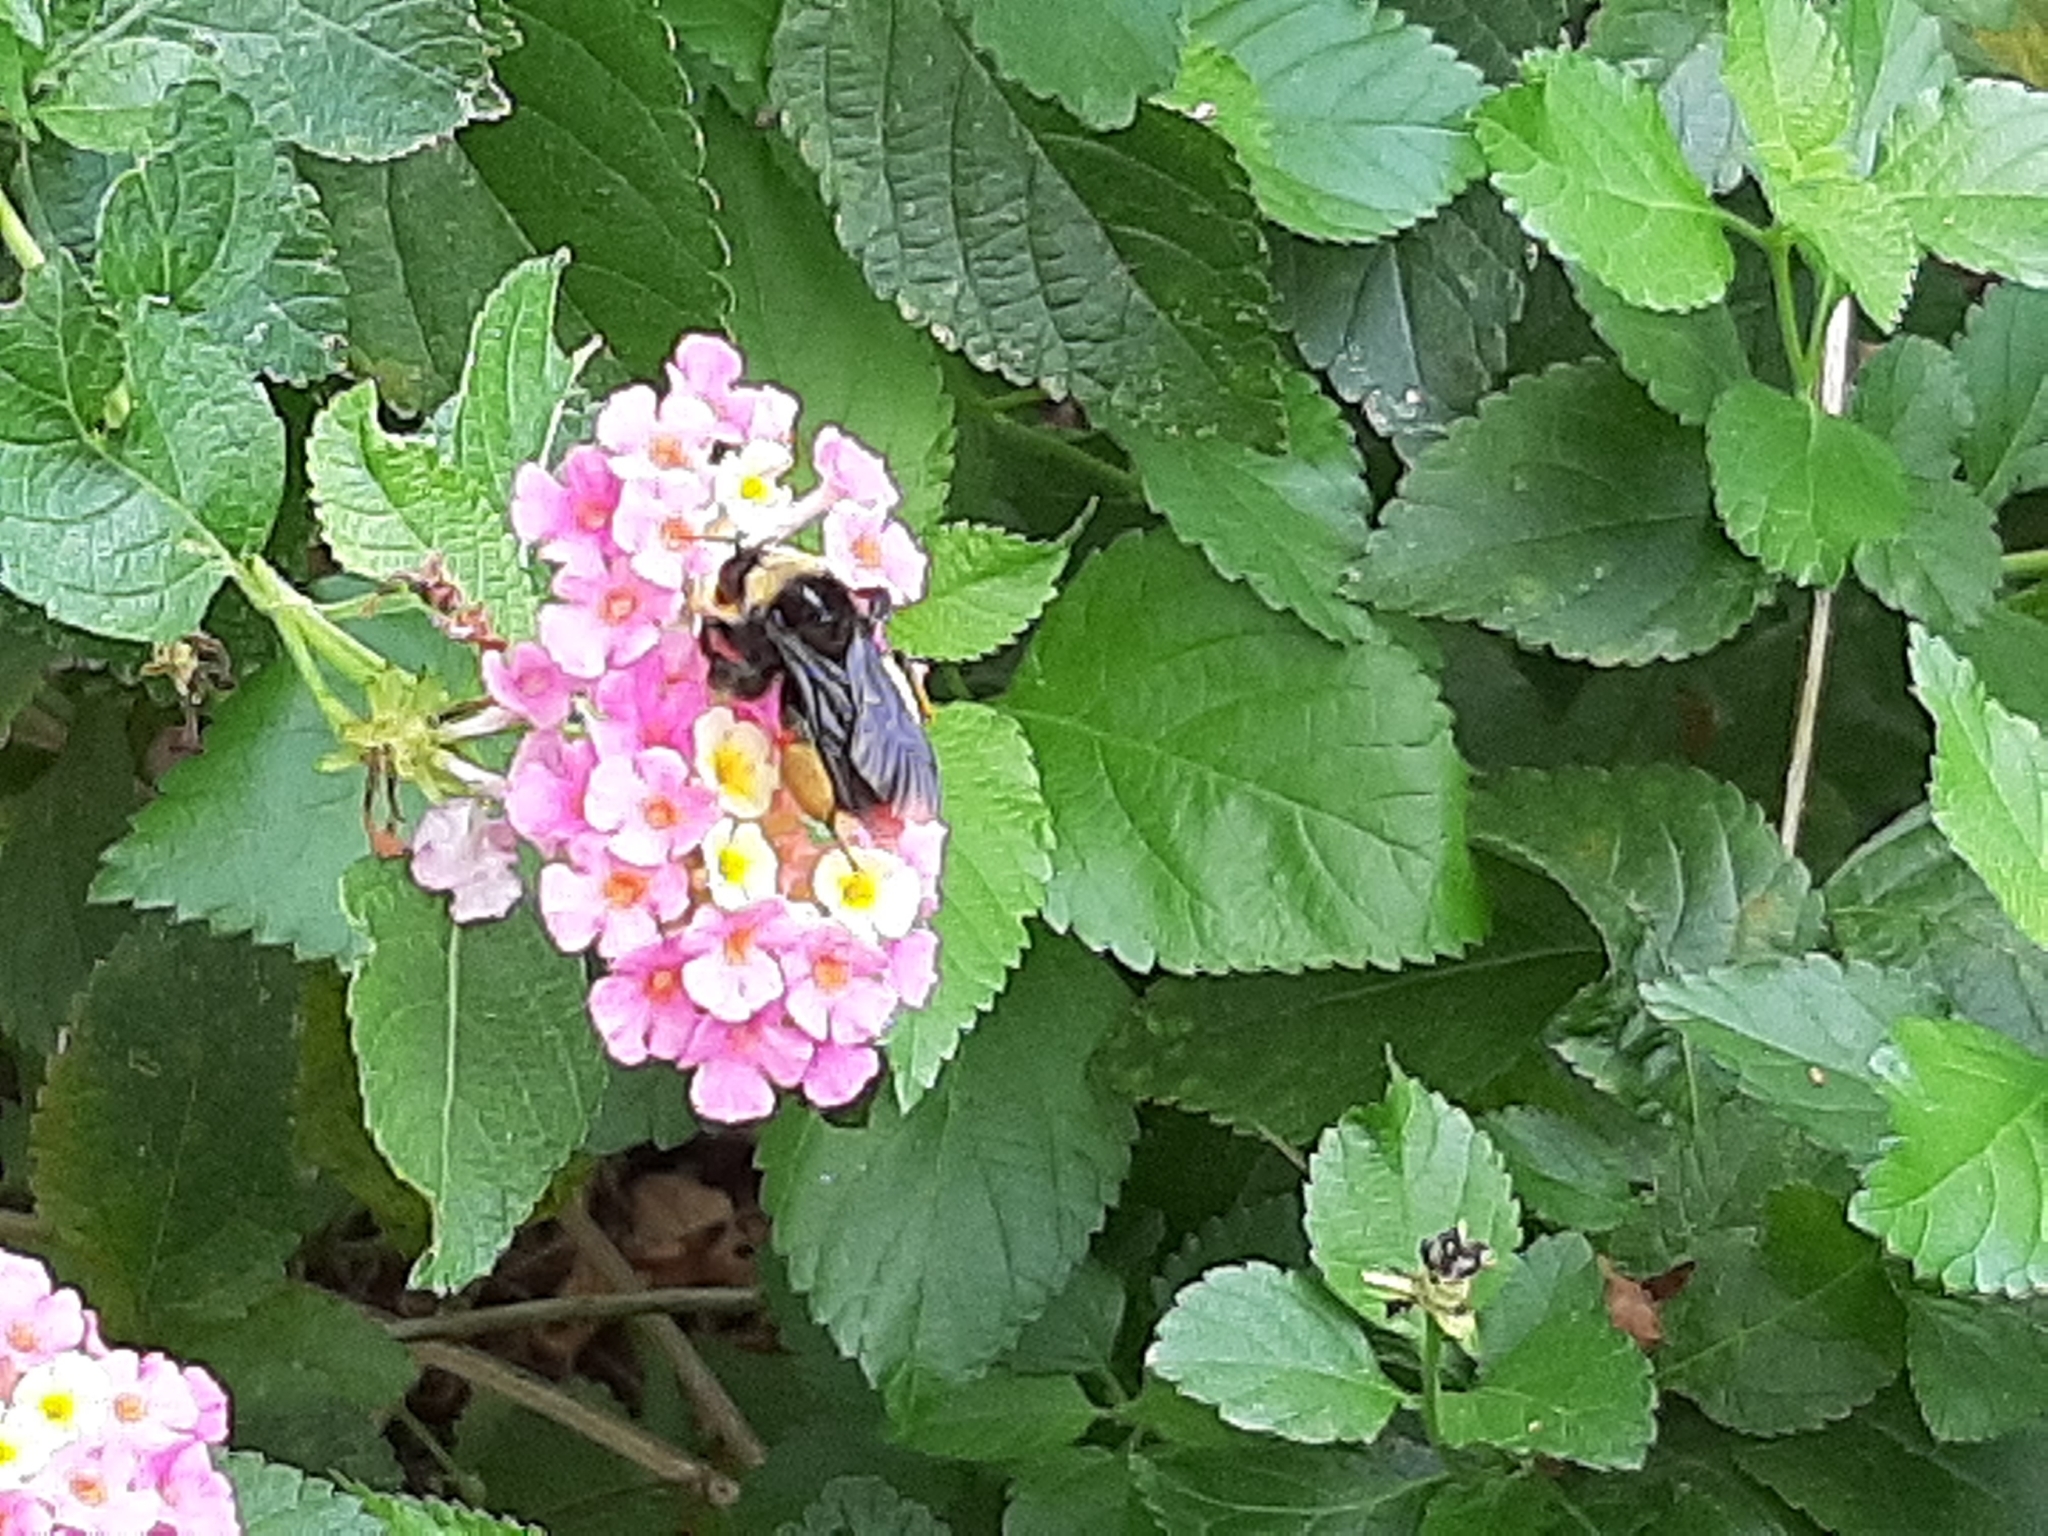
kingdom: Animalia
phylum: Arthropoda
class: Insecta
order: Hymenoptera
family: Apidae
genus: Bombus
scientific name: Bombus pensylvanicus
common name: Bumble bee
